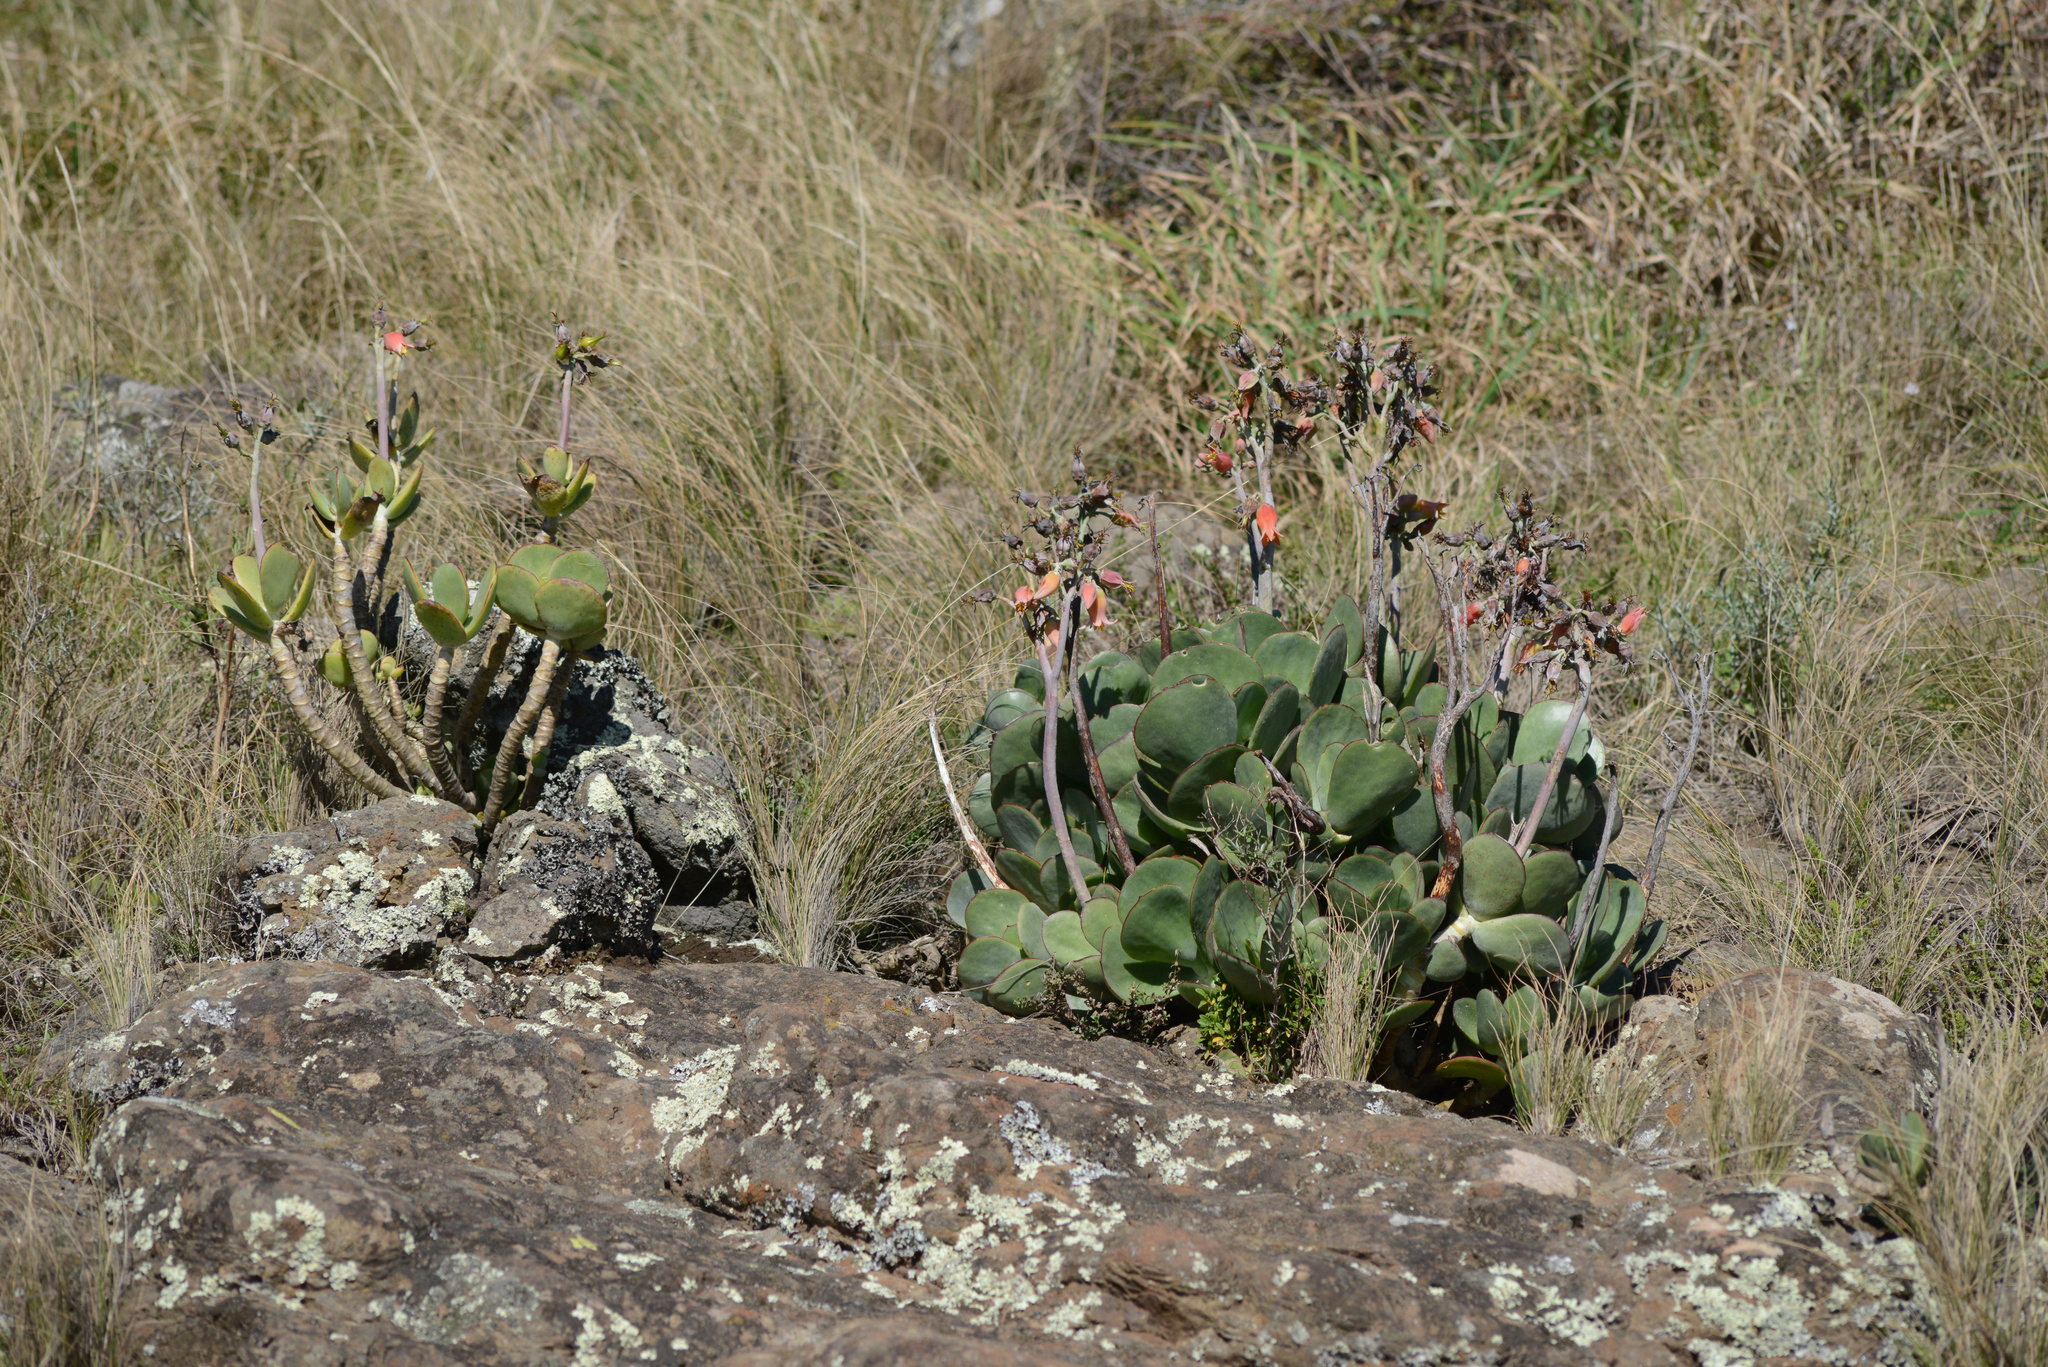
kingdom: Plantae
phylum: Tracheophyta
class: Magnoliopsida
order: Saxifragales
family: Crassulaceae
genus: Cotyledon
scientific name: Cotyledon orbiculata
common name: Pig's ear
